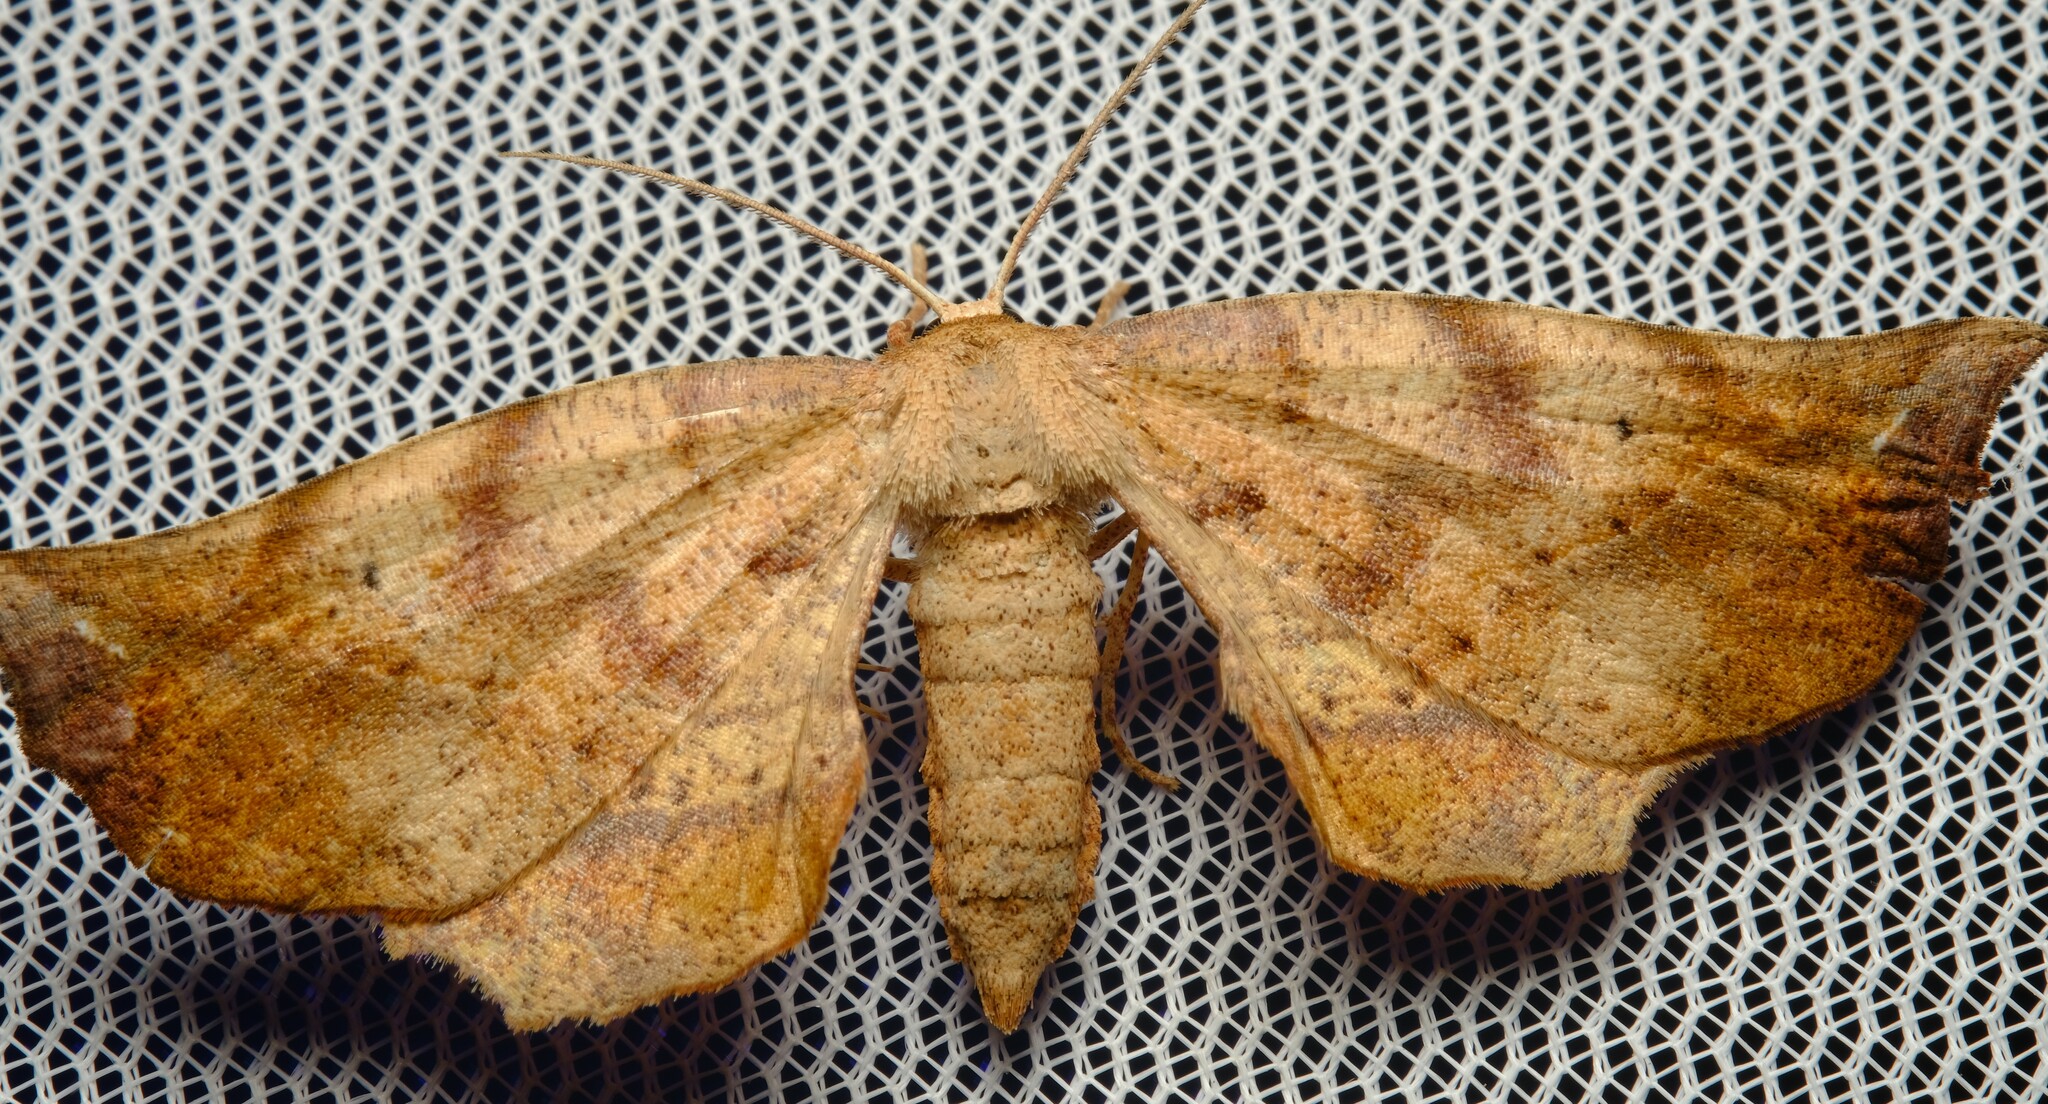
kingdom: Animalia
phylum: Arthropoda
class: Insecta
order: Lepidoptera
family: Geometridae
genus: Parepisparis
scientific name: Parepisparis virgatus
